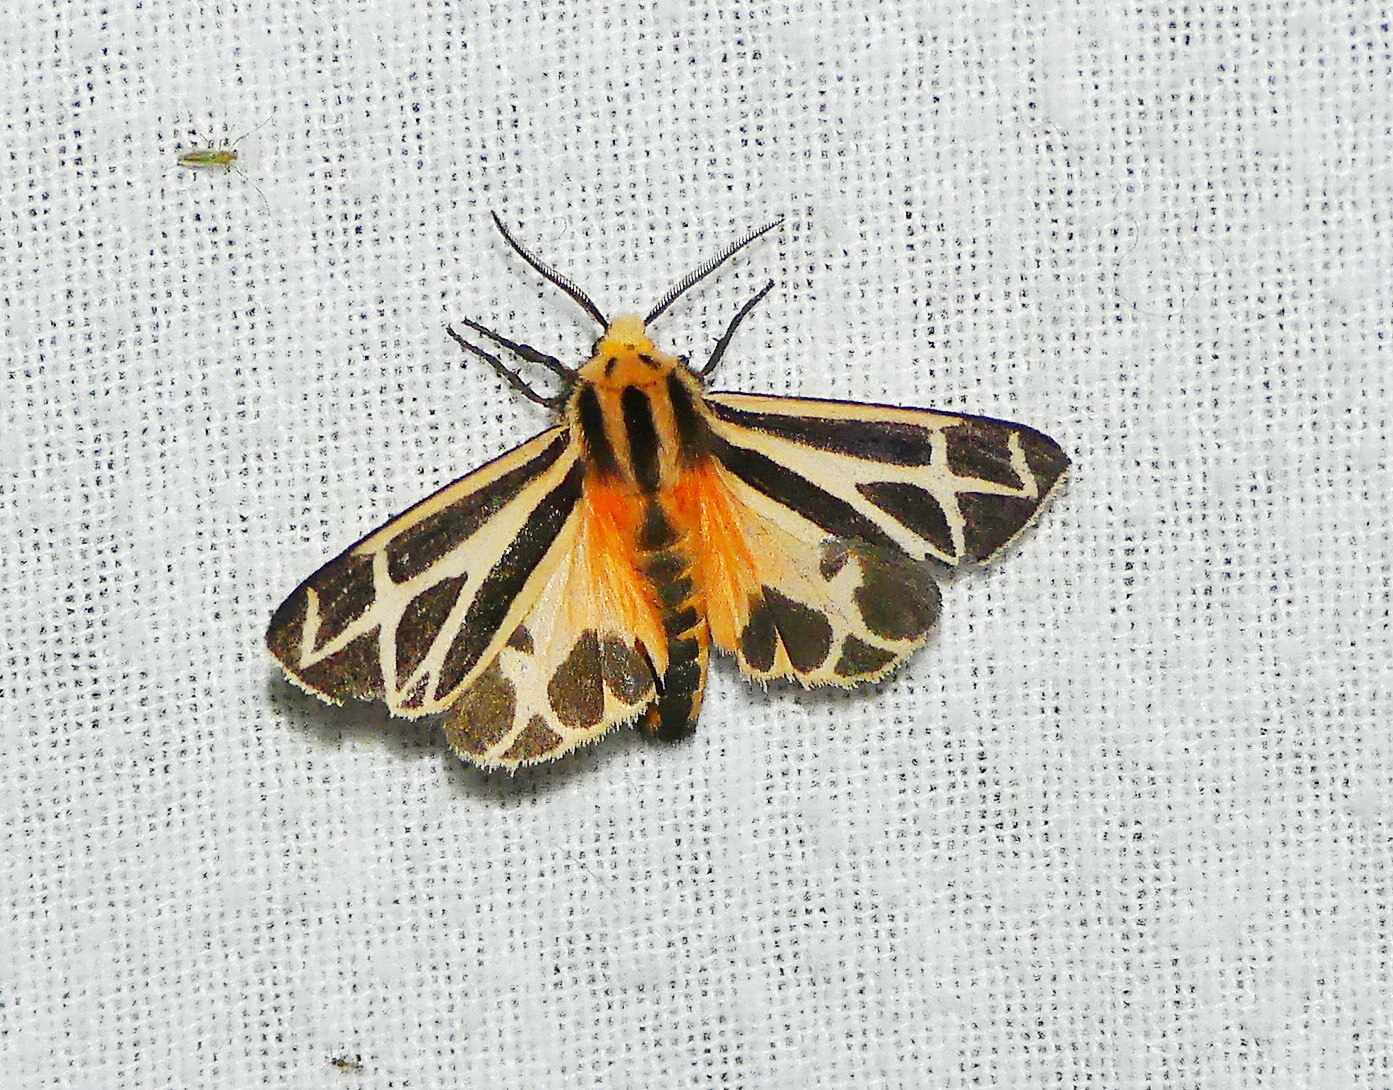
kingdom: Animalia
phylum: Arthropoda
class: Insecta
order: Lepidoptera
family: Erebidae
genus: Apantesis
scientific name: Apantesis phalerata
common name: Harnessed tiger moth
